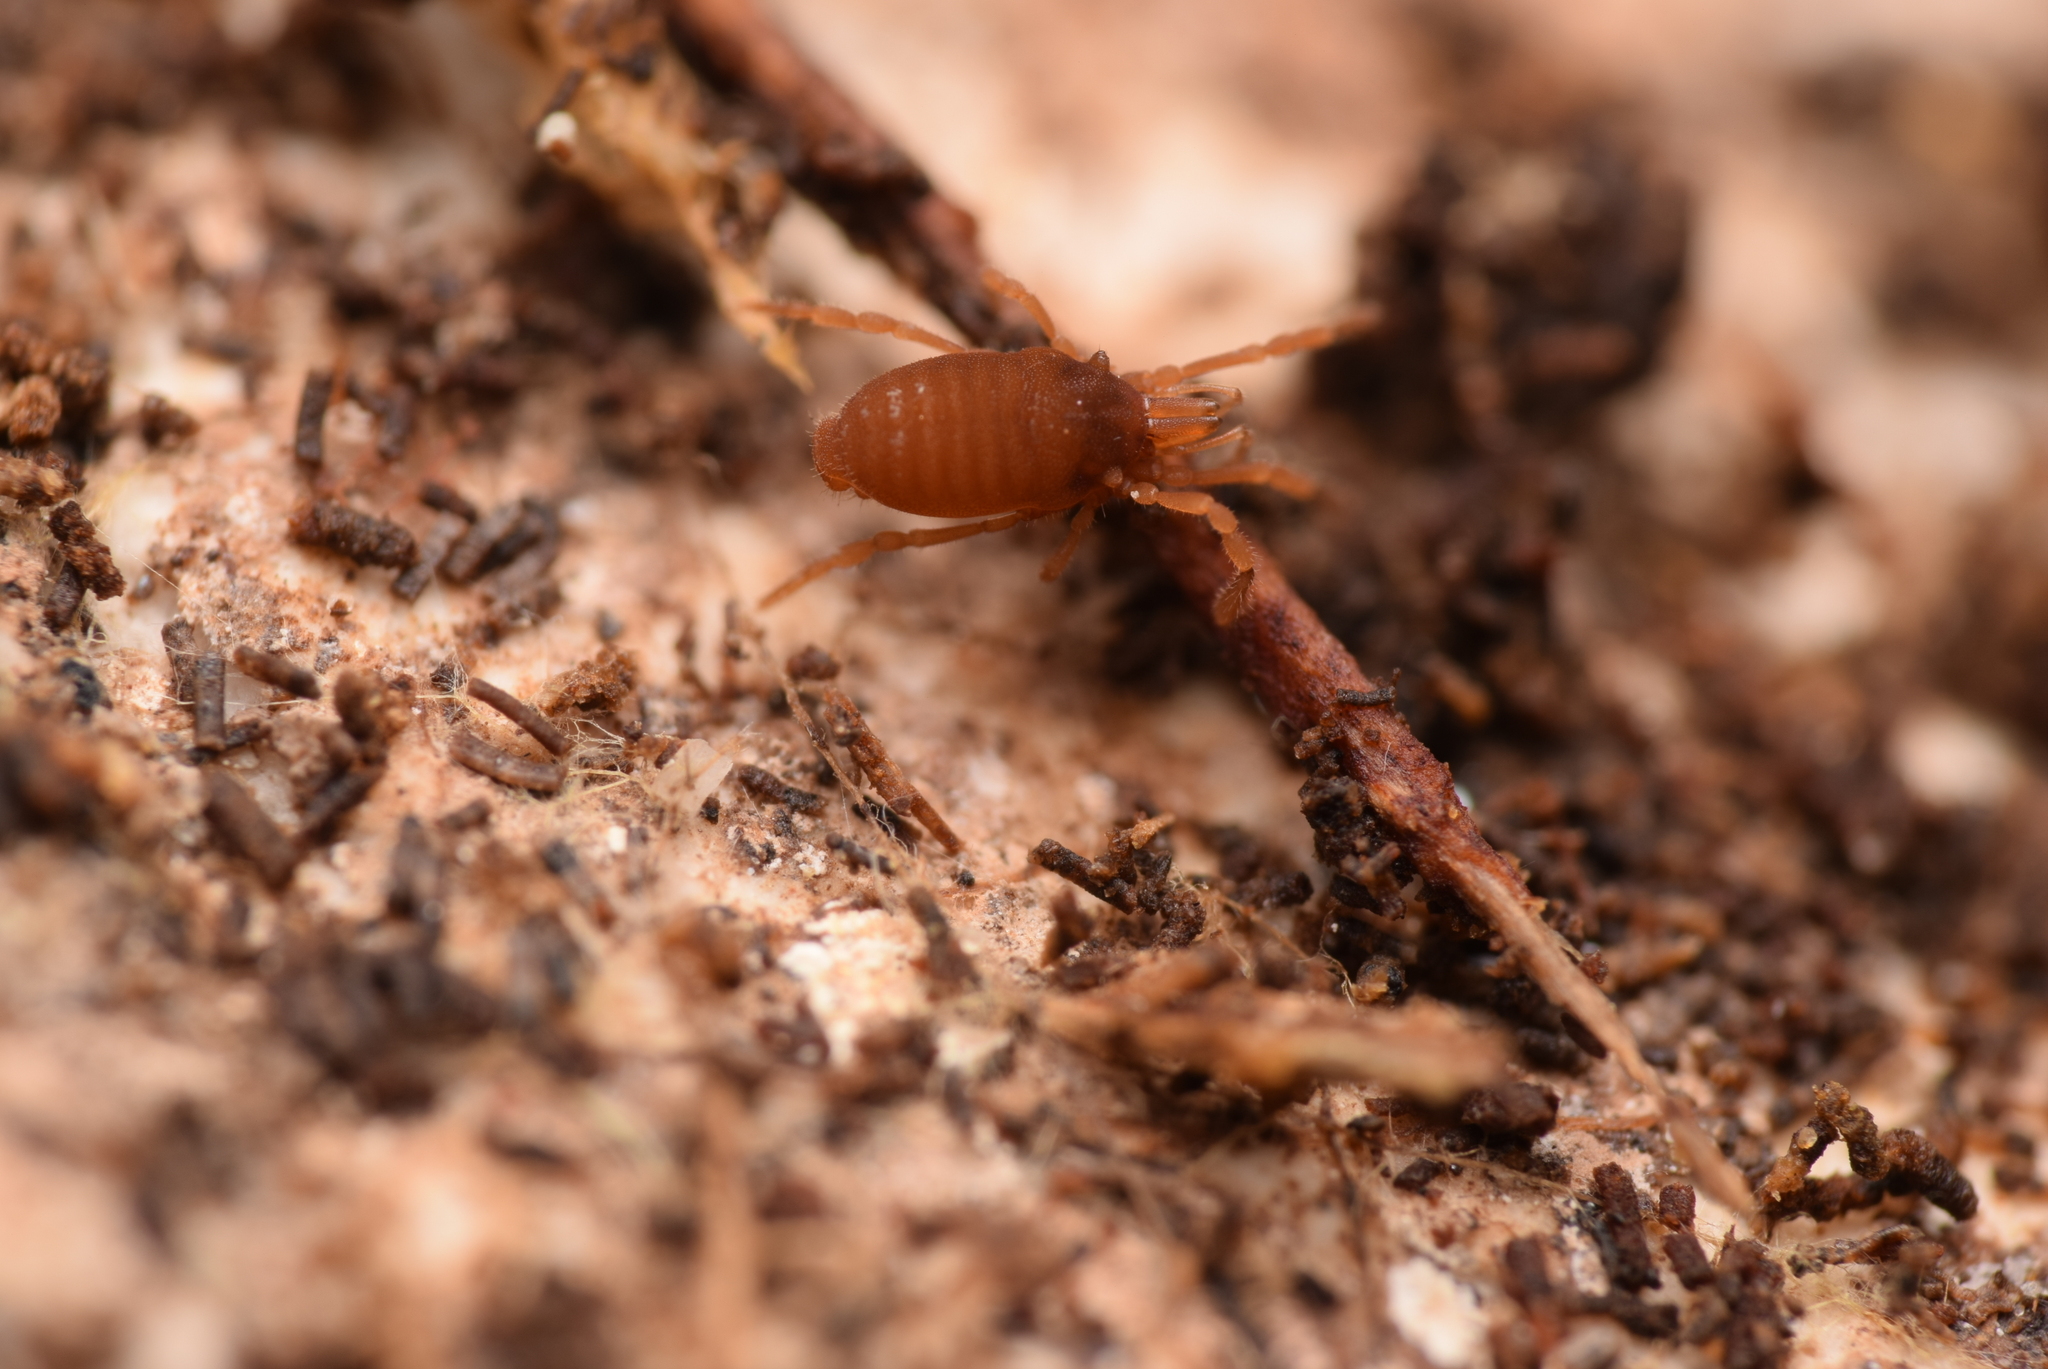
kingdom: Animalia
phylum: Arthropoda
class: Arachnida
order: Opiliones
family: Sironidae
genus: Siro
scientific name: Siro rubens
